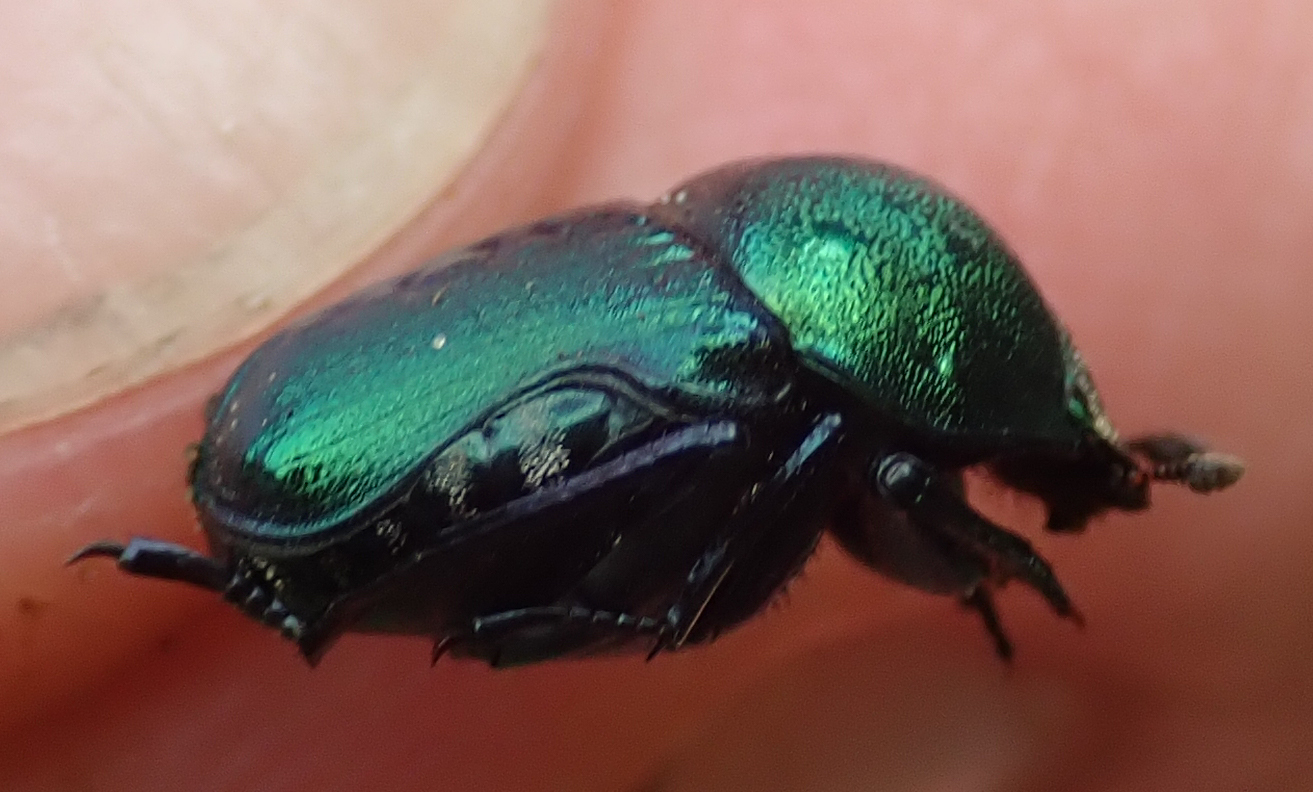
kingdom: Animalia
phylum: Arthropoda
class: Insecta
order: Coleoptera
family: Scarabaeidae
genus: Gymnopleurus
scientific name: Gymnopleurus virens
